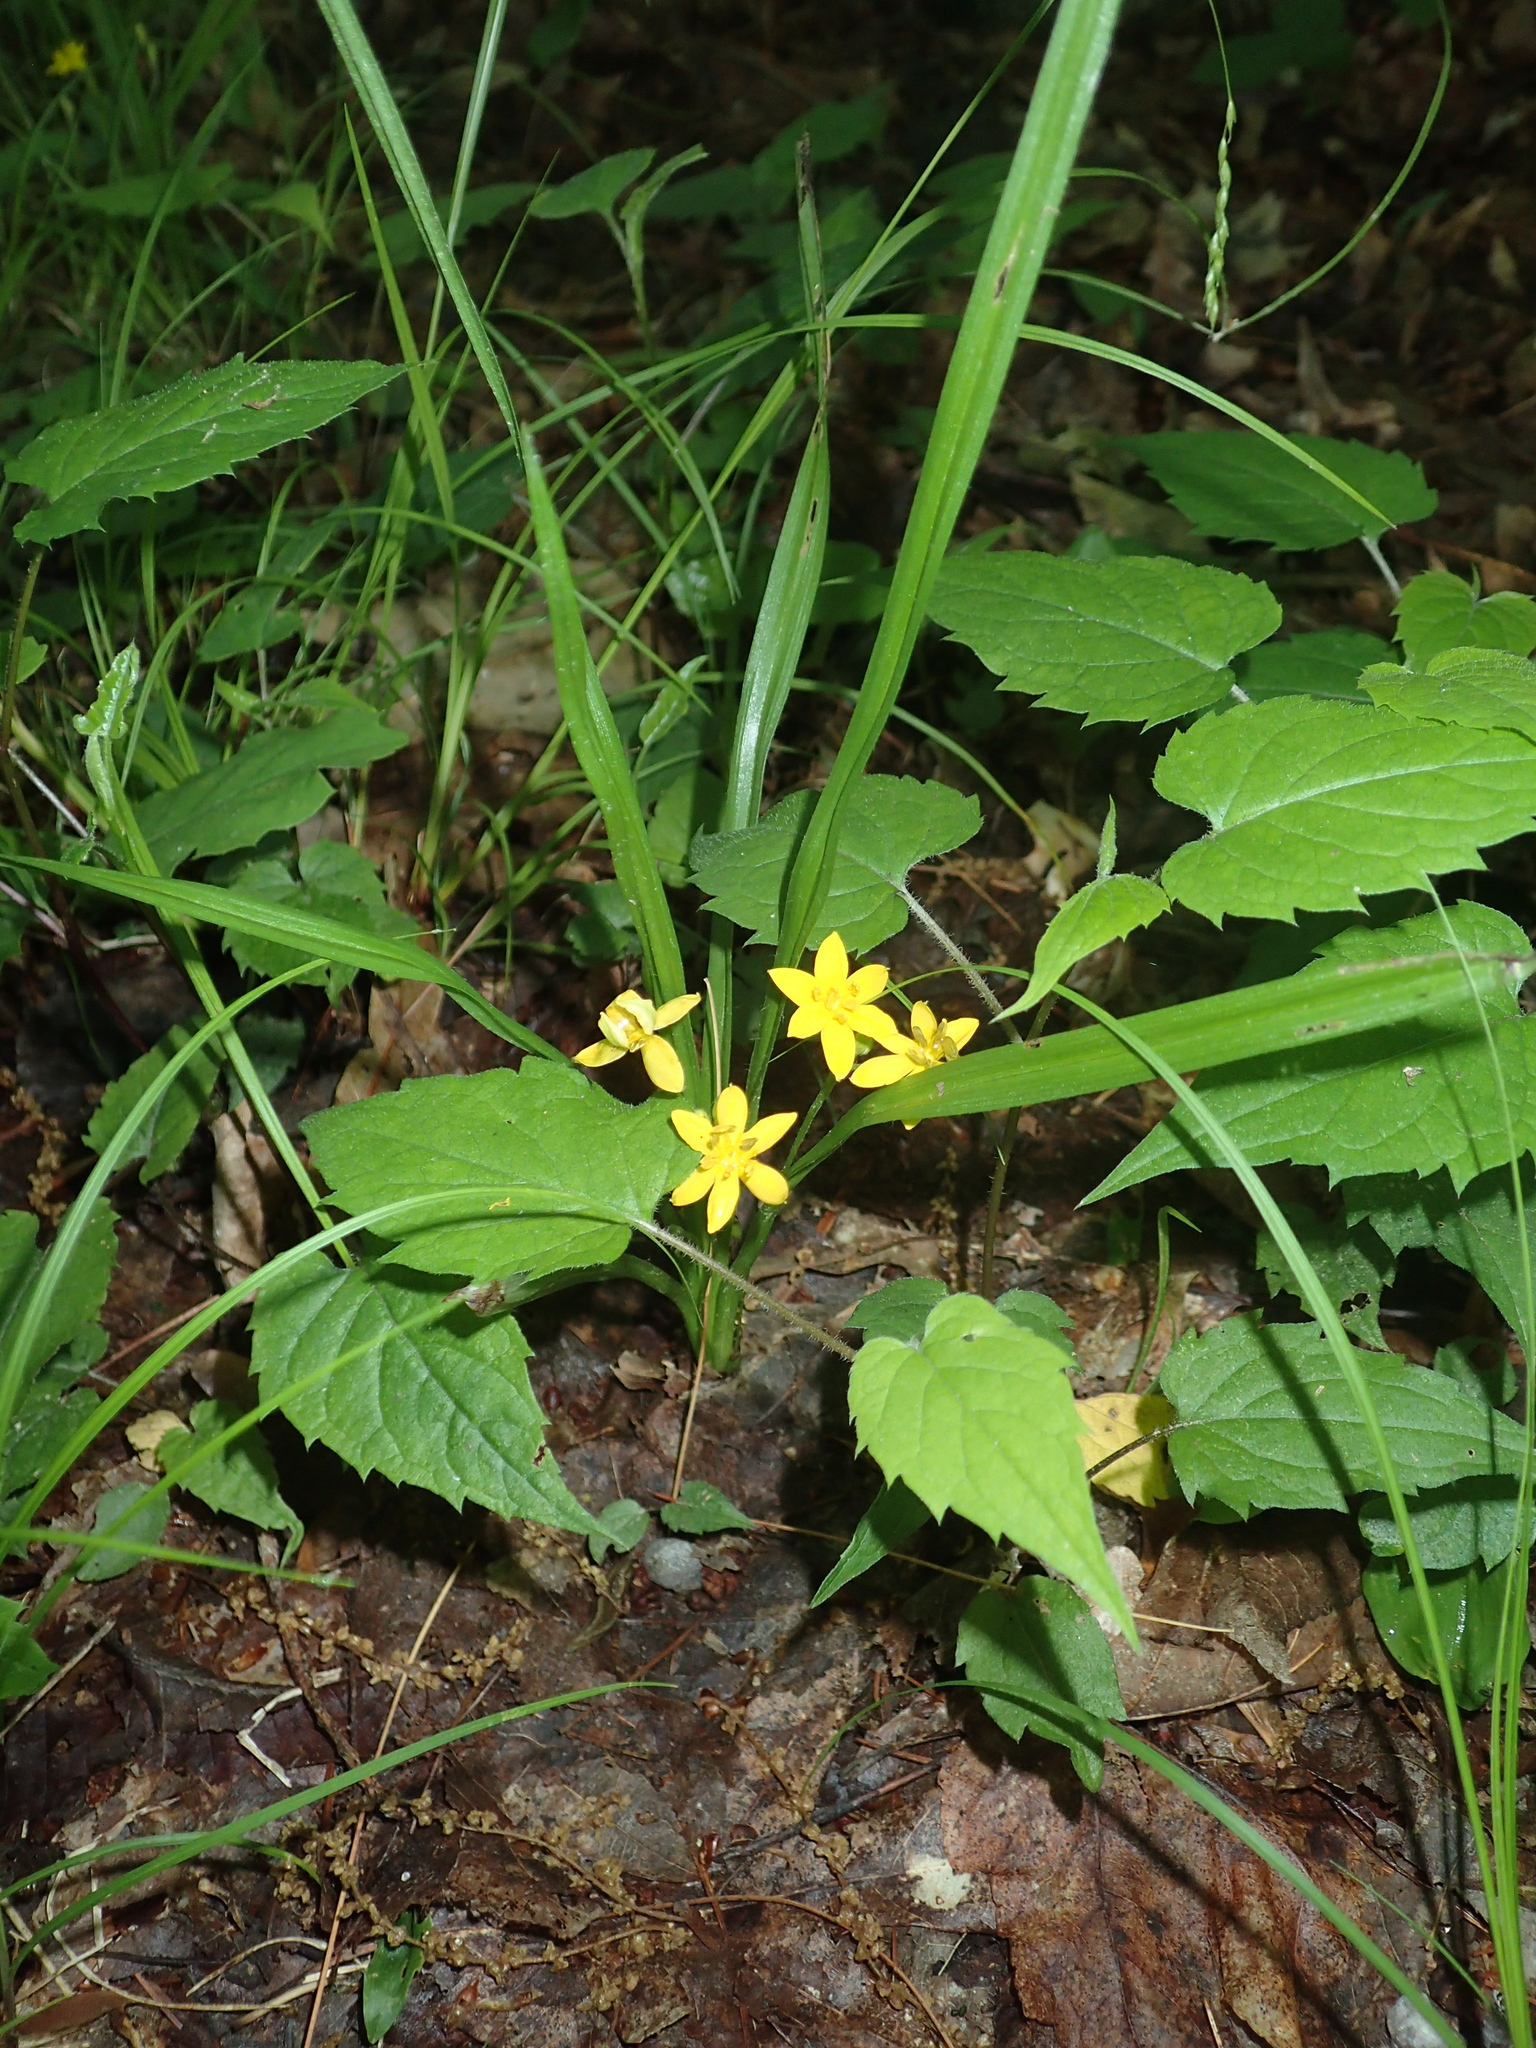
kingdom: Plantae
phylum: Tracheophyta
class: Liliopsida
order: Asparagales
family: Hypoxidaceae
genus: Hypoxis
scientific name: Hypoxis hirsuta
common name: Common goldstar
